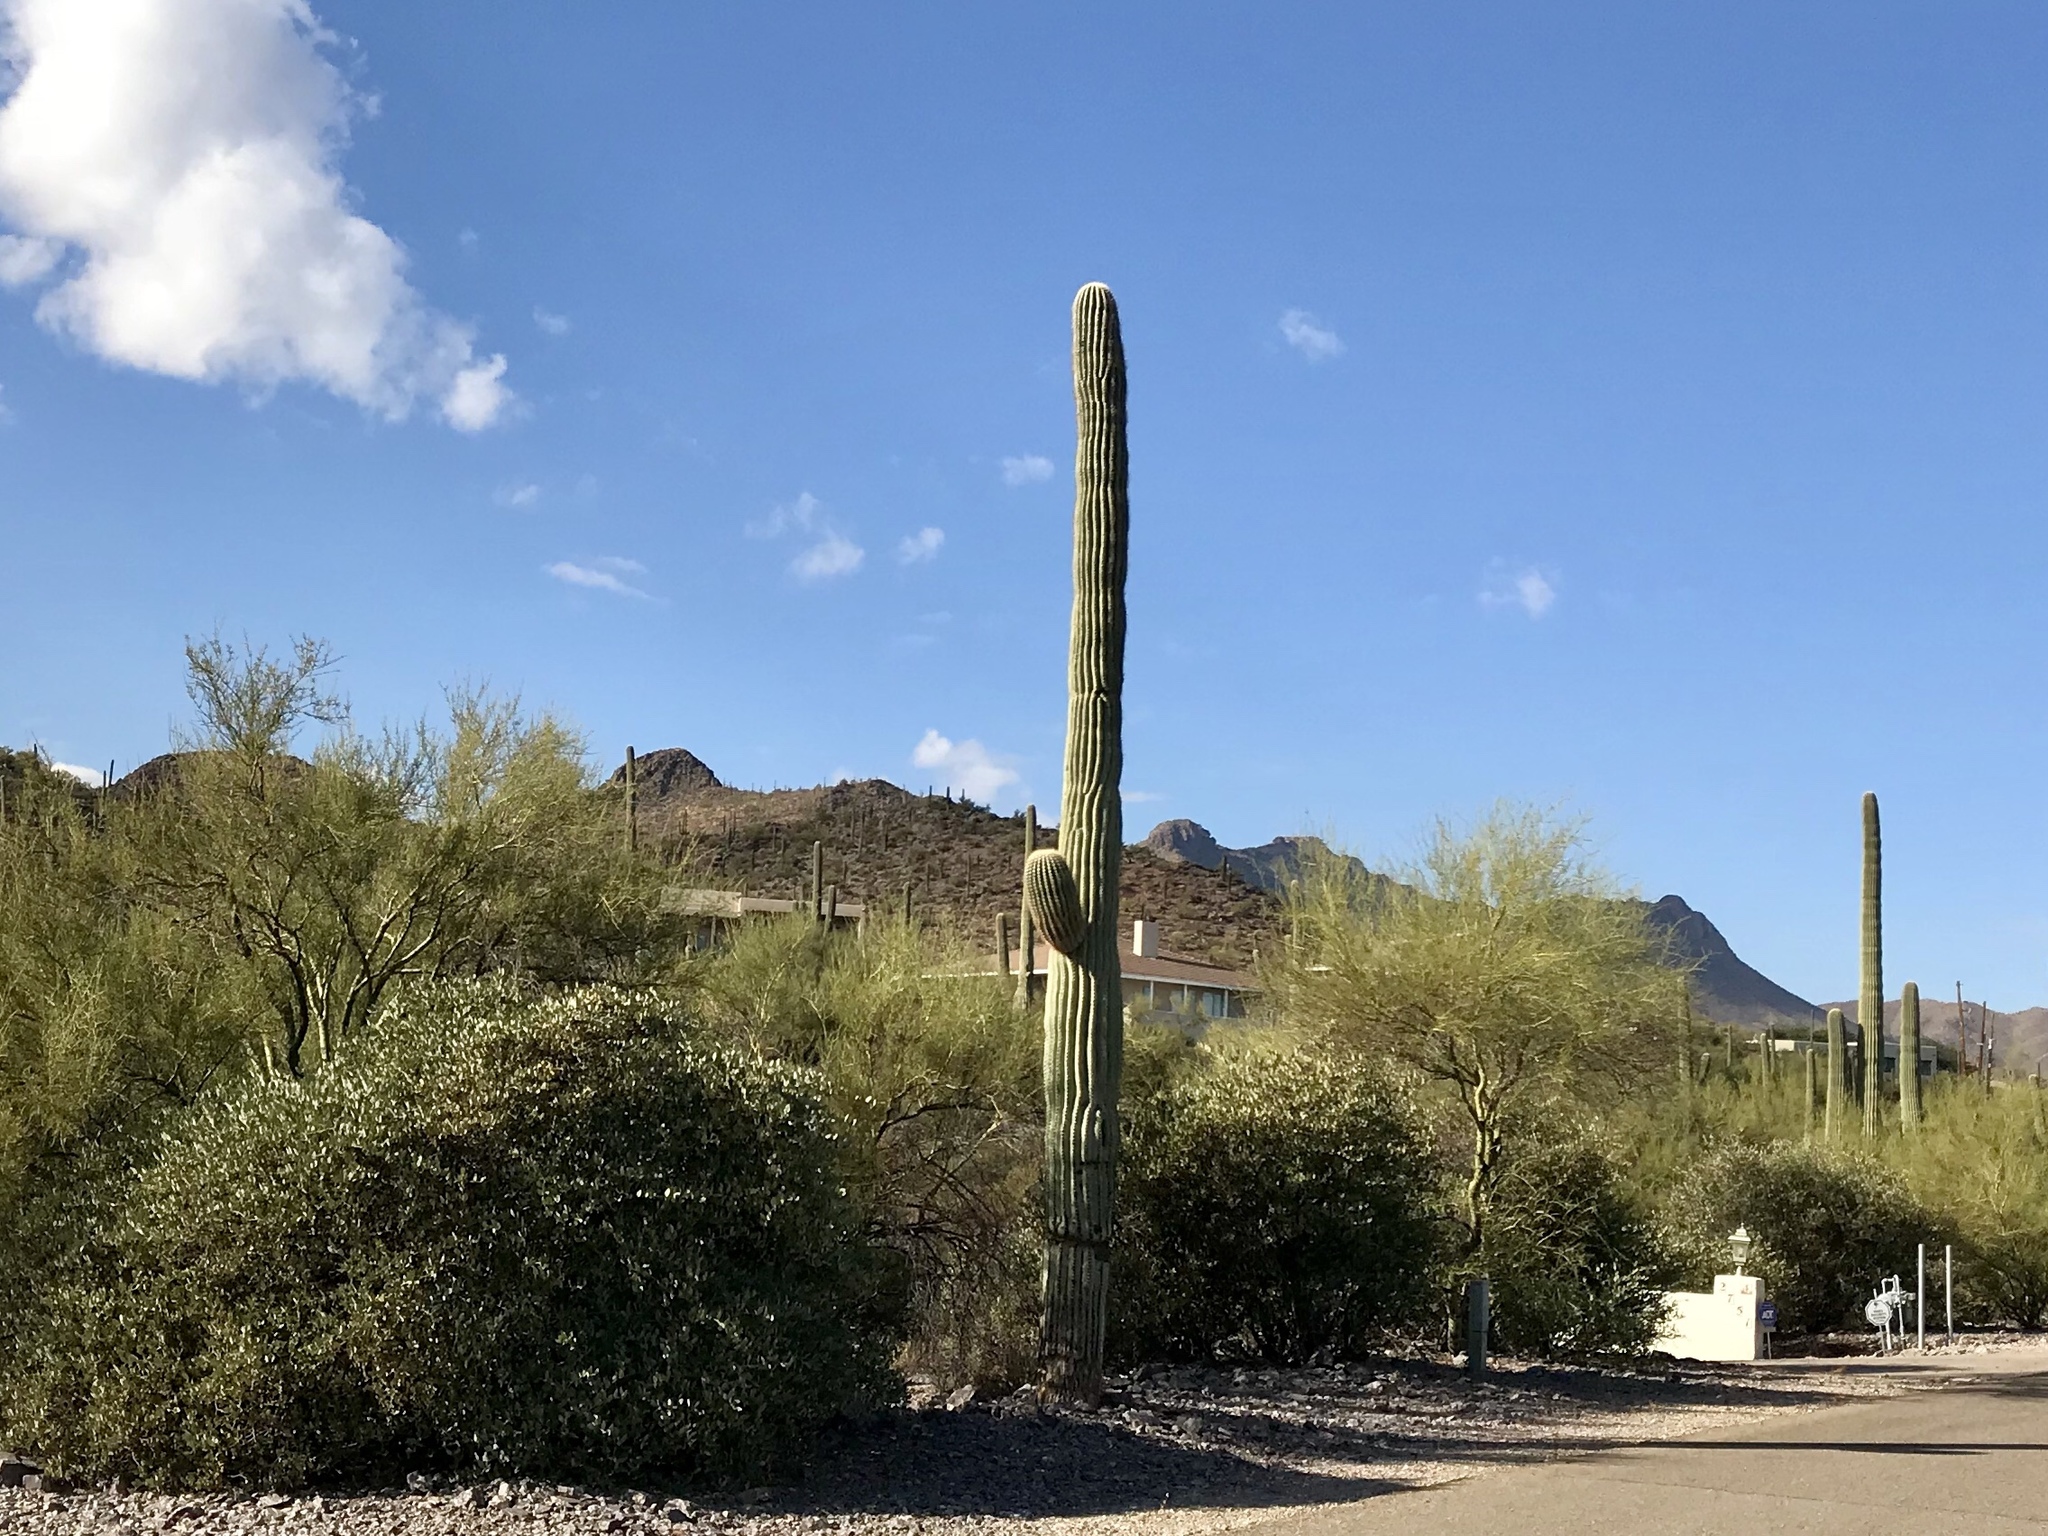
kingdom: Plantae
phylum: Tracheophyta
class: Magnoliopsida
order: Caryophyllales
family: Cactaceae
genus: Carnegiea
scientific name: Carnegiea gigantea
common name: Saguaro
